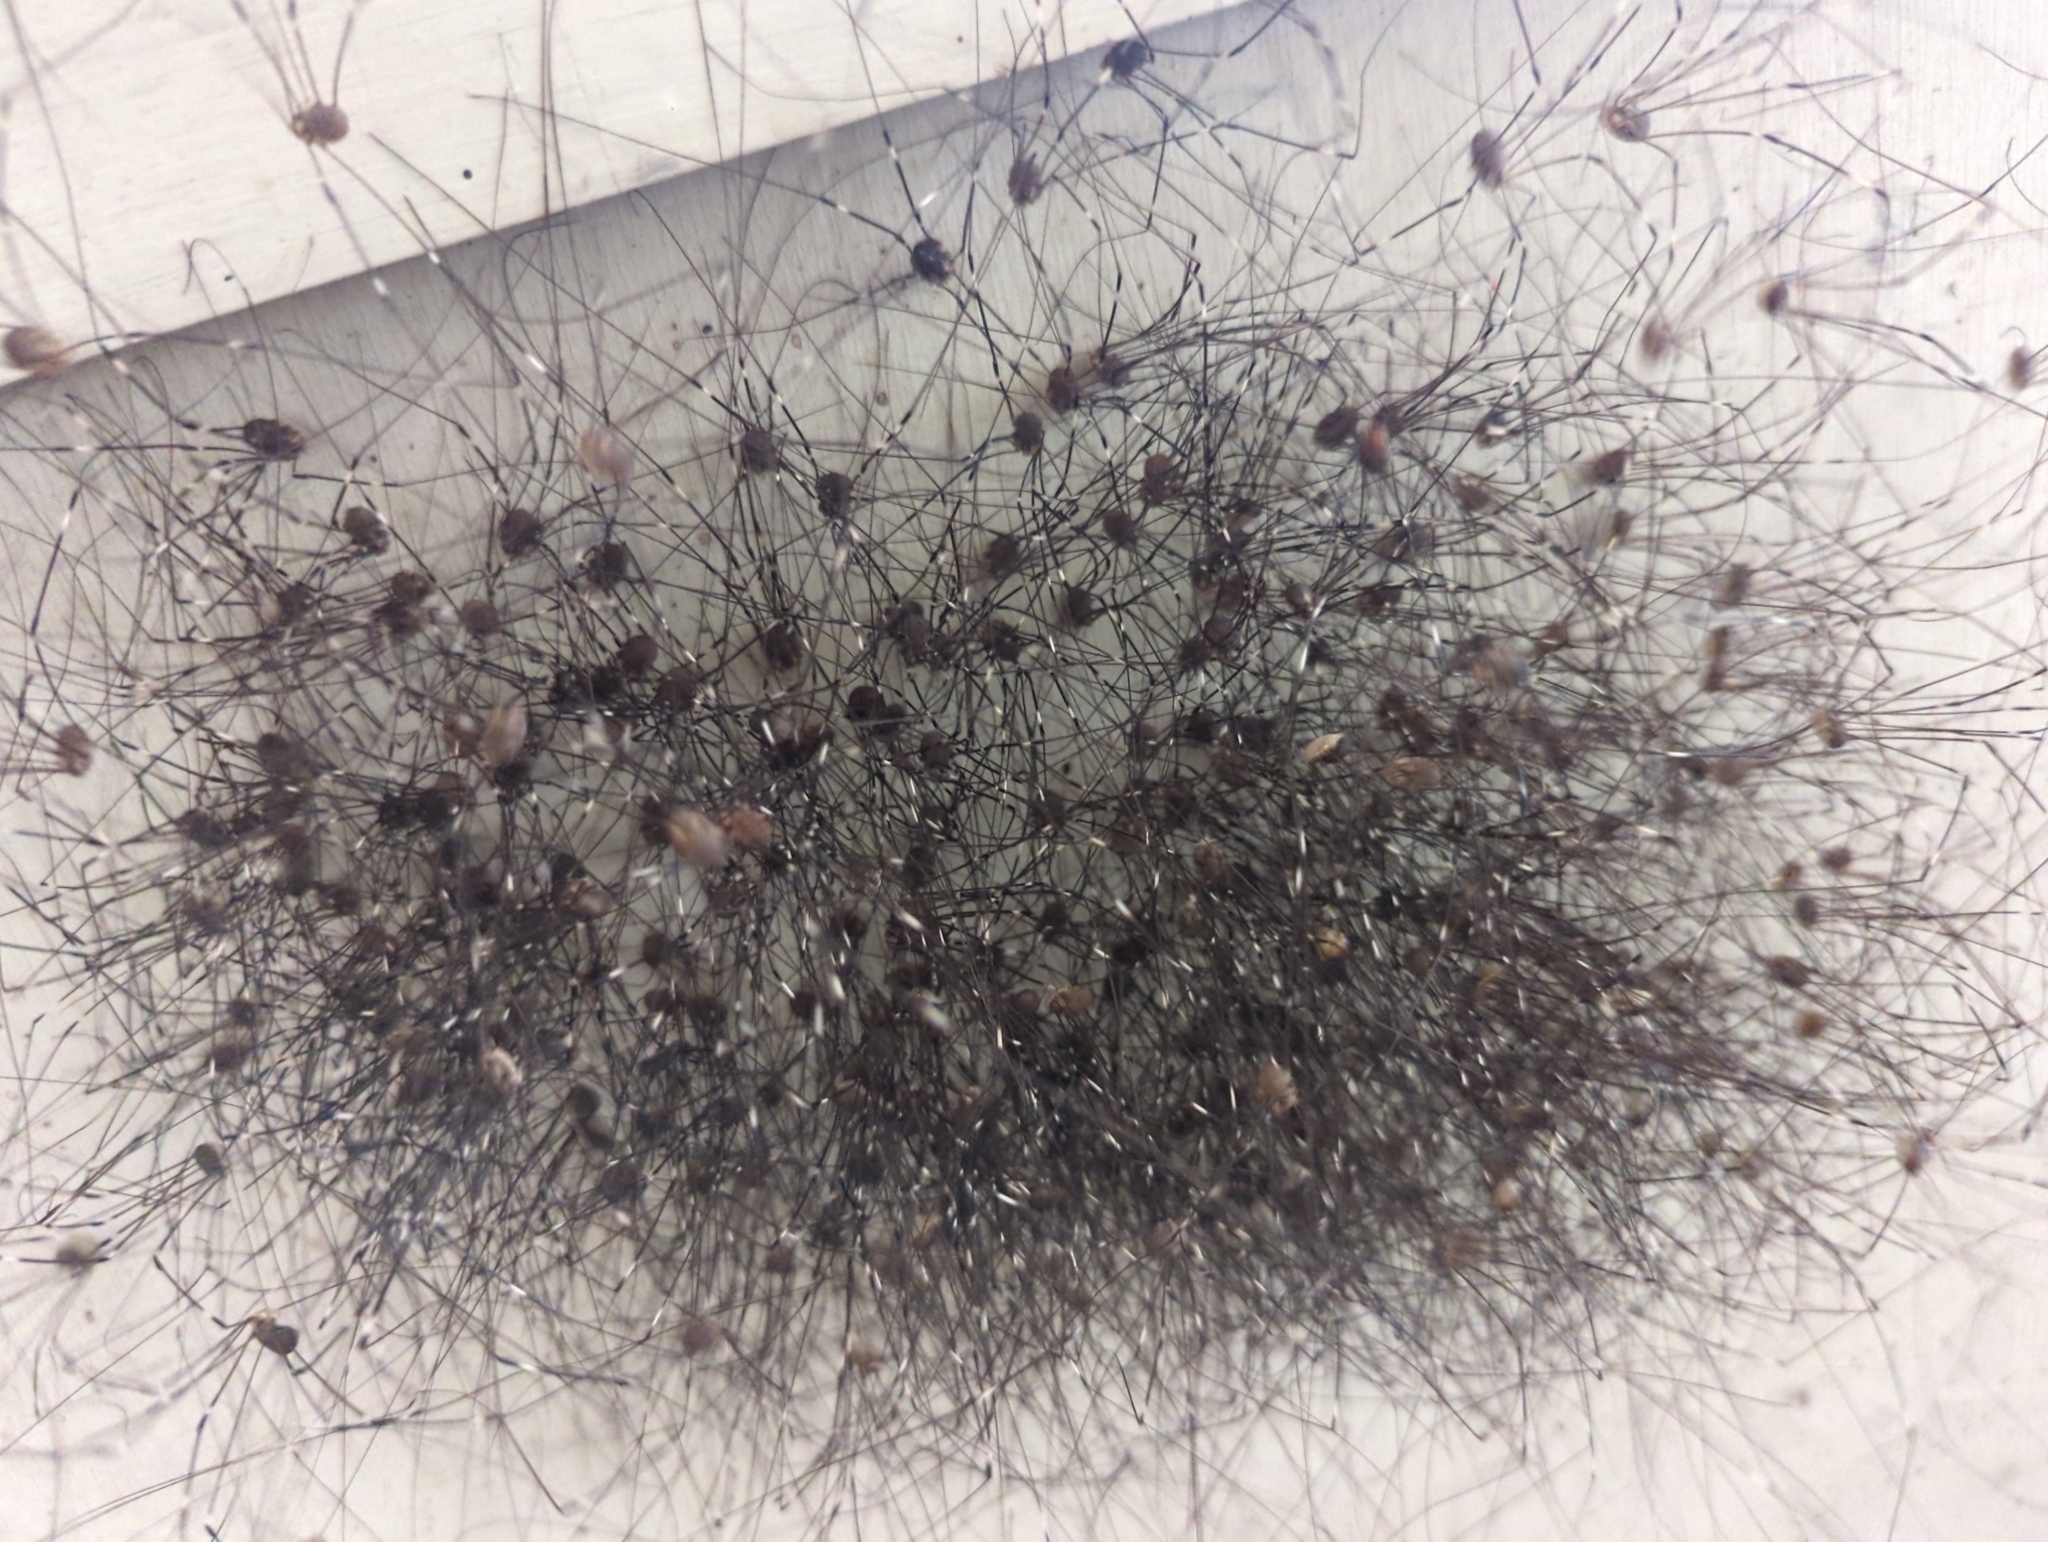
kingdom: Animalia
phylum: Arthropoda
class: Arachnida
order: Opiliones
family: Sclerosomatidae
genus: Leiobunum
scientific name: Leiobunum townsendi
